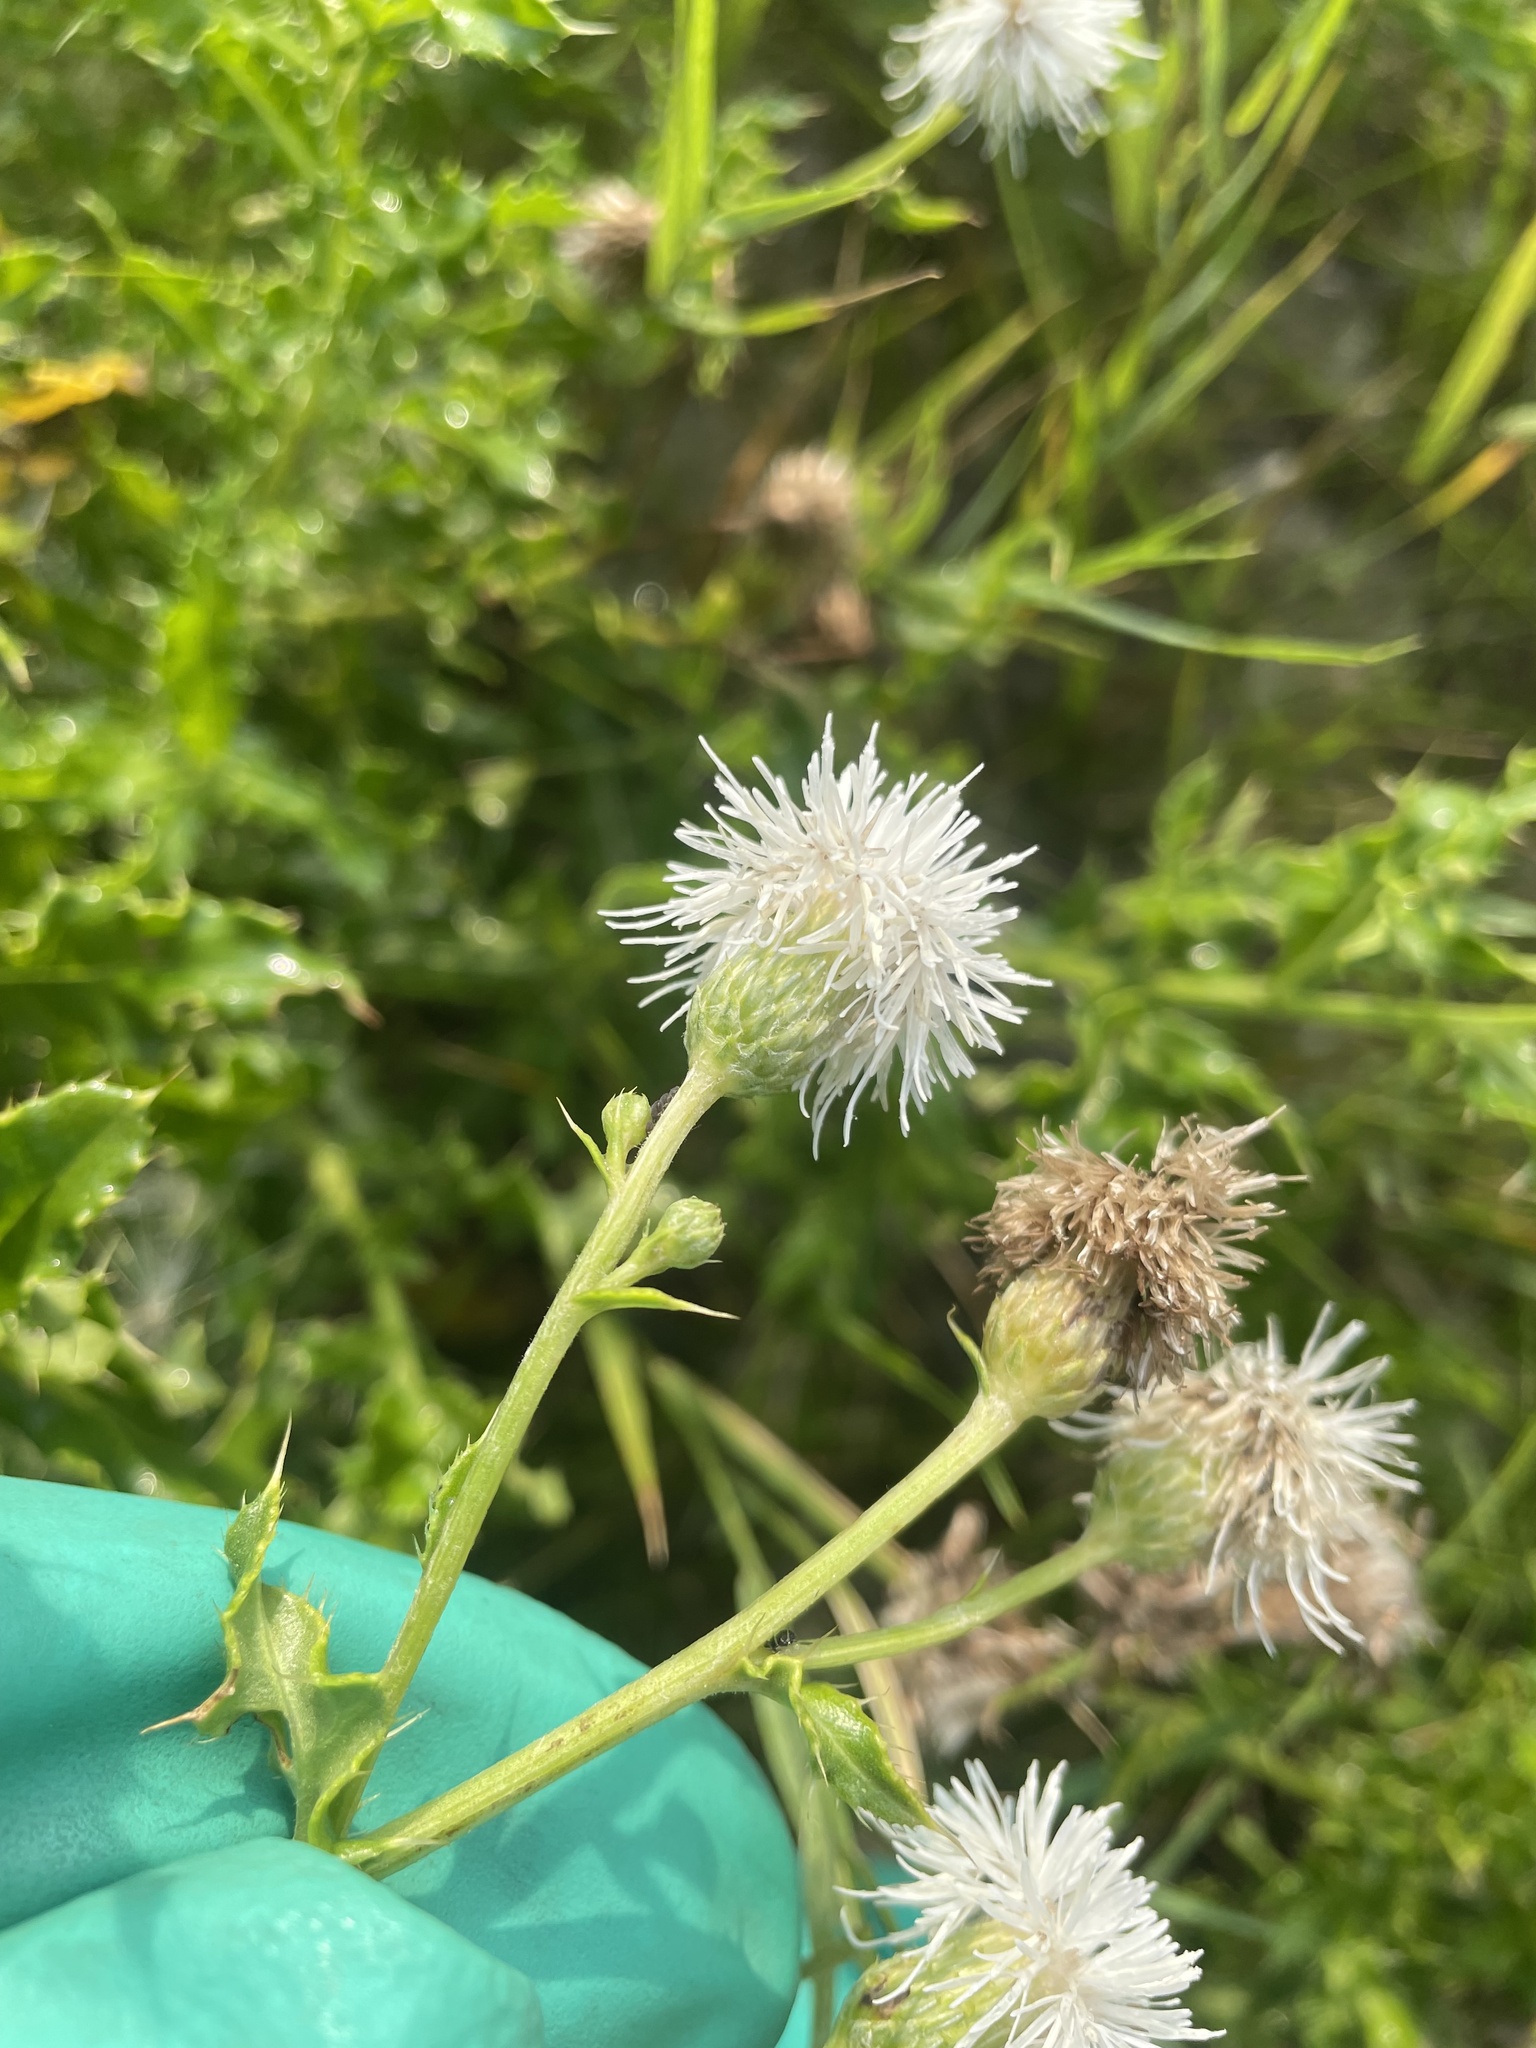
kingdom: Plantae
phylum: Tracheophyta
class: Magnoliopsida
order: Asterales
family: Asteraceae
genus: Cirsium
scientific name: Cirsium arvense
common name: Creeping thistle
